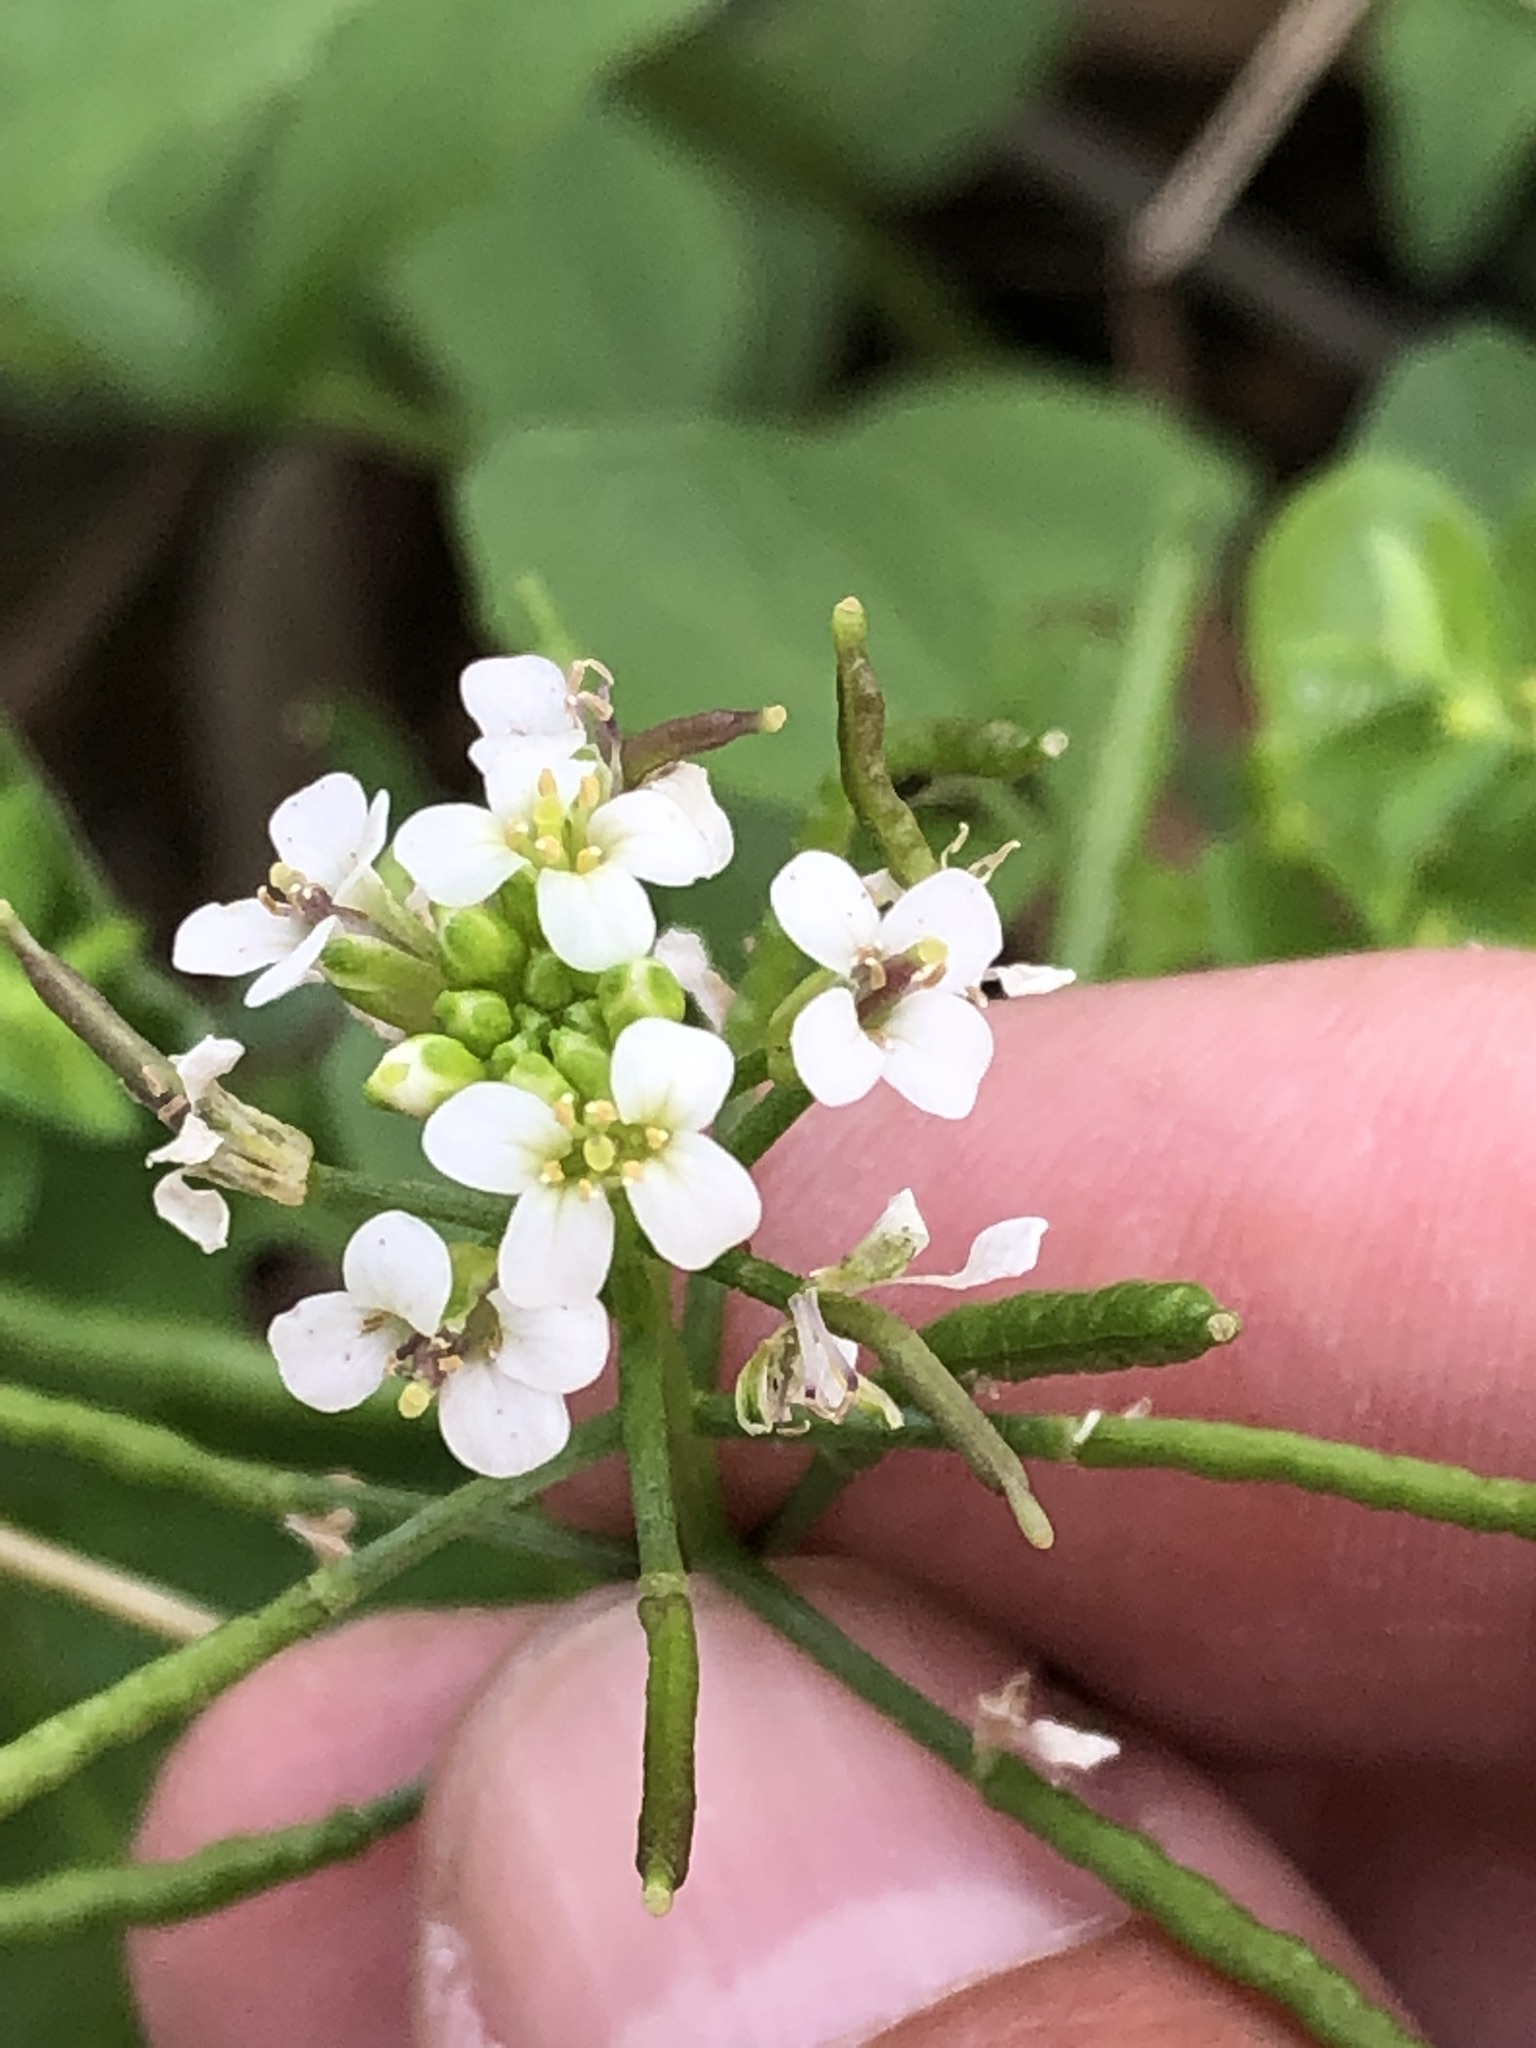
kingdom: Plantae
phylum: Tracheophyta
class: Magnoliopsida
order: Brassicales
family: Brassicaceae
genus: Nasturtium
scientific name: Nasturtium officinale
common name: Watercress
